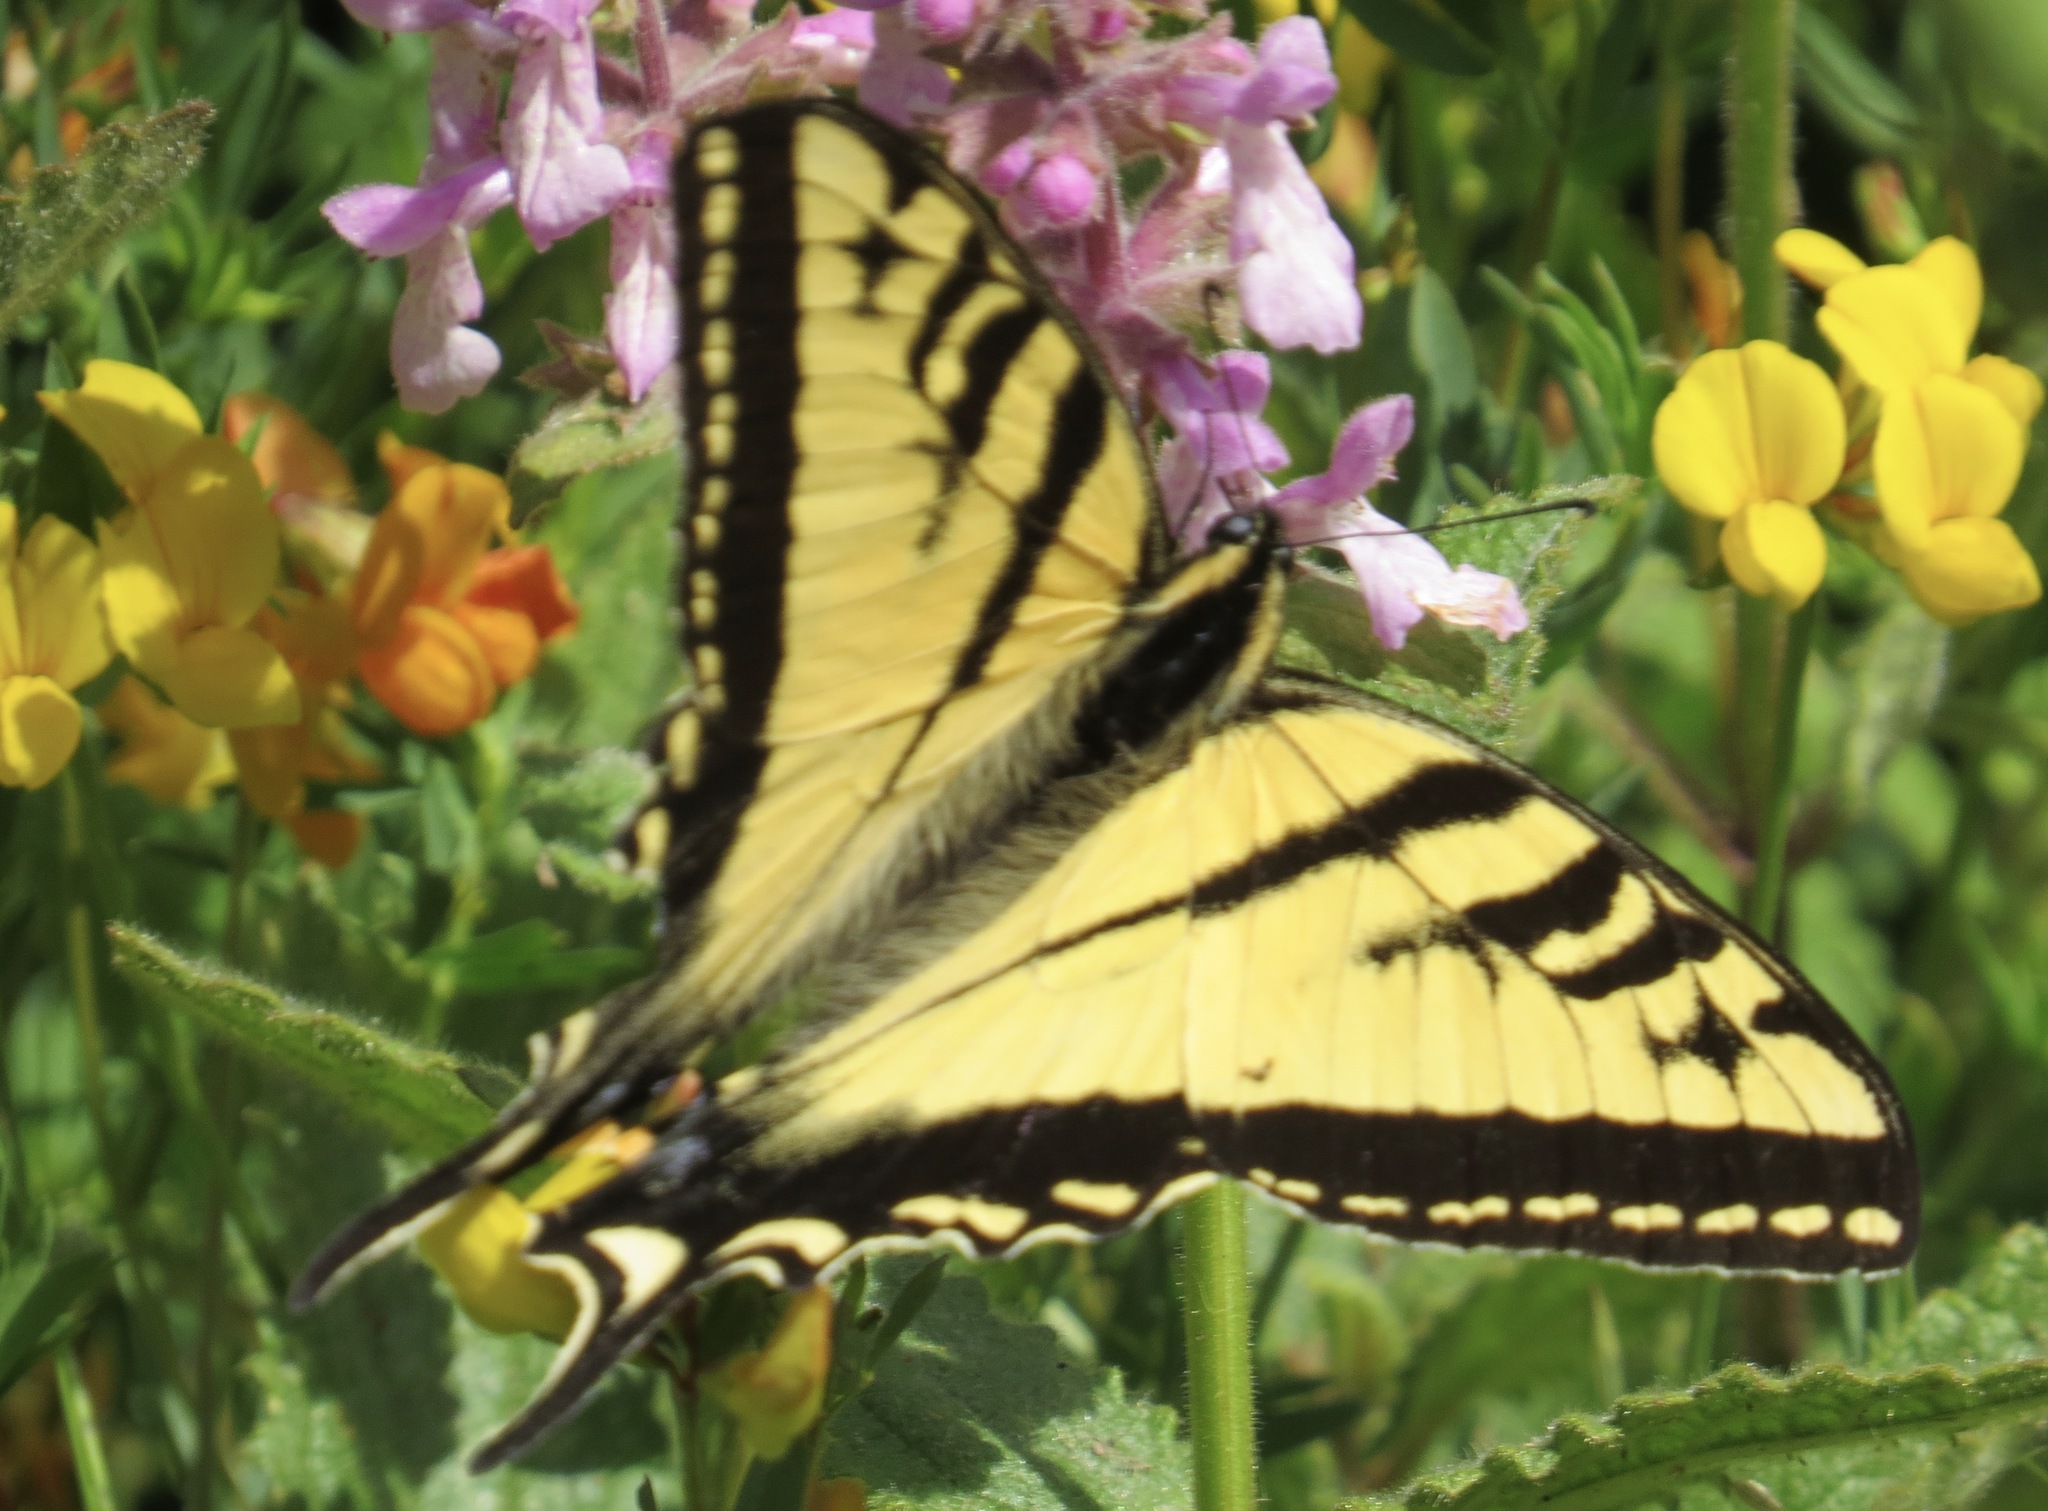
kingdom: Animalia
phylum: Arthropoda
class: Insecta
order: Lepidoptera
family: Papilionidae
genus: Papilio
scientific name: Papilio rutulus
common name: Western tiger swallowtail
